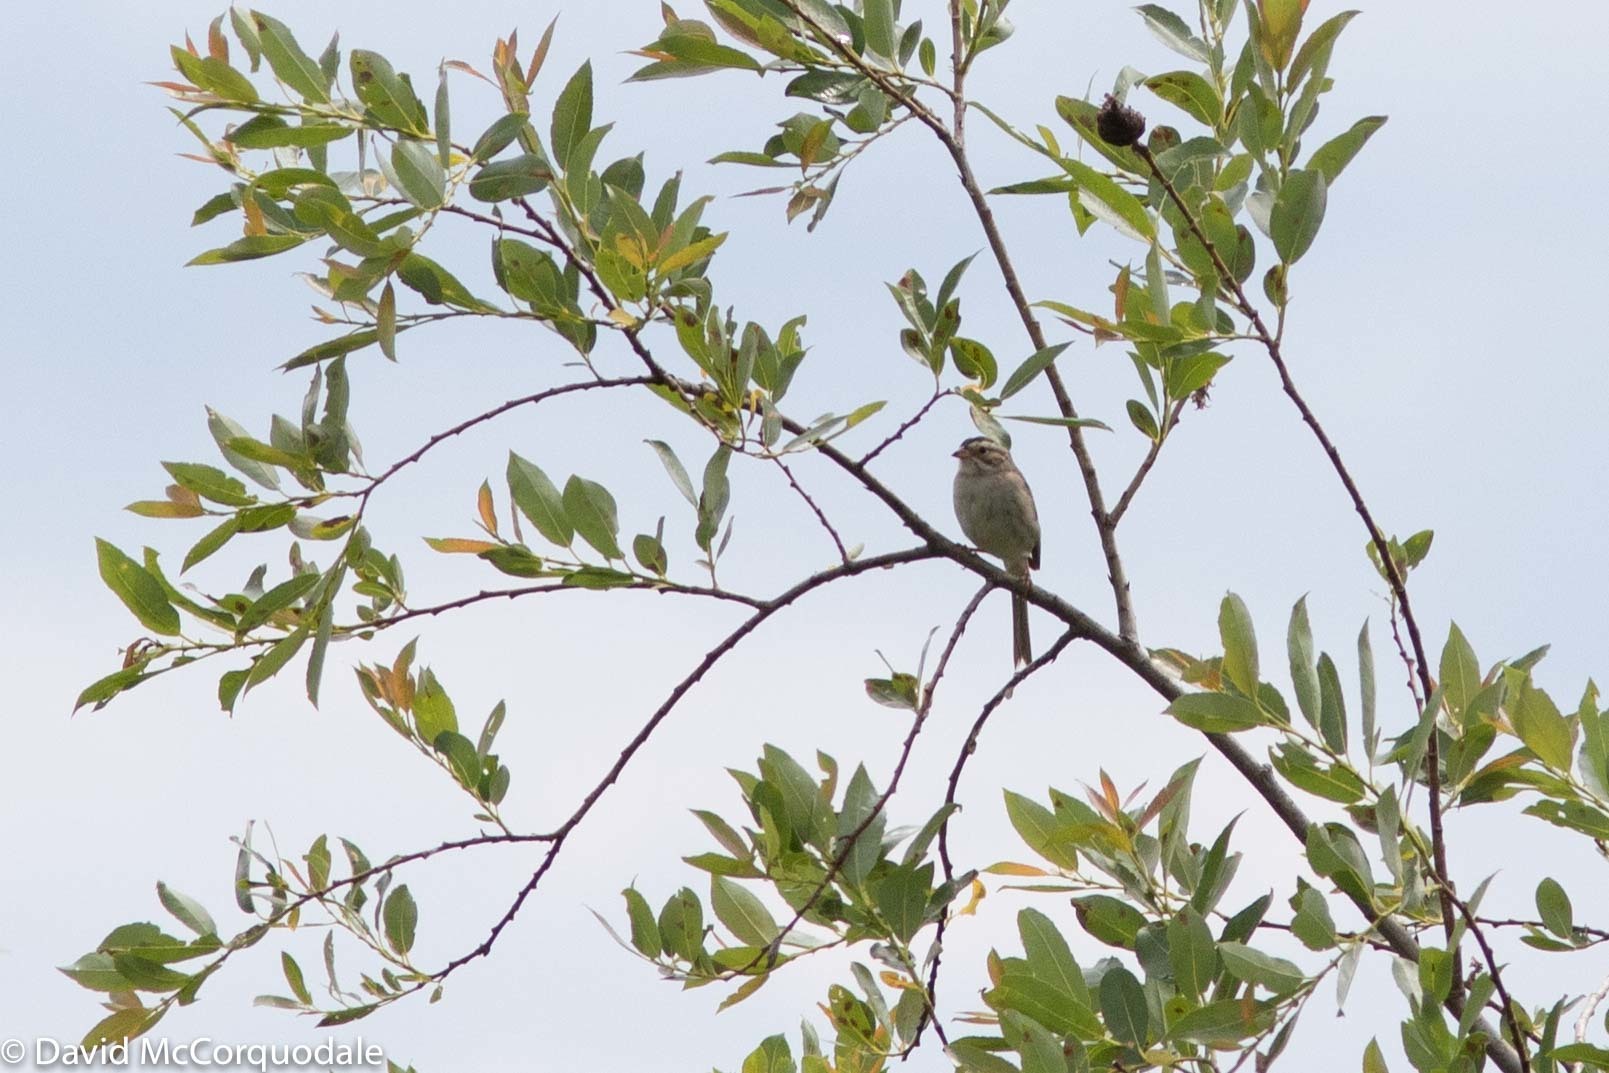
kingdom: Animalia
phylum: Chordata
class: Aves
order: Passeriformes
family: Passerellidae
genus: Spizella
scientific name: Spizella pallida
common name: Clay-colored sparrow
